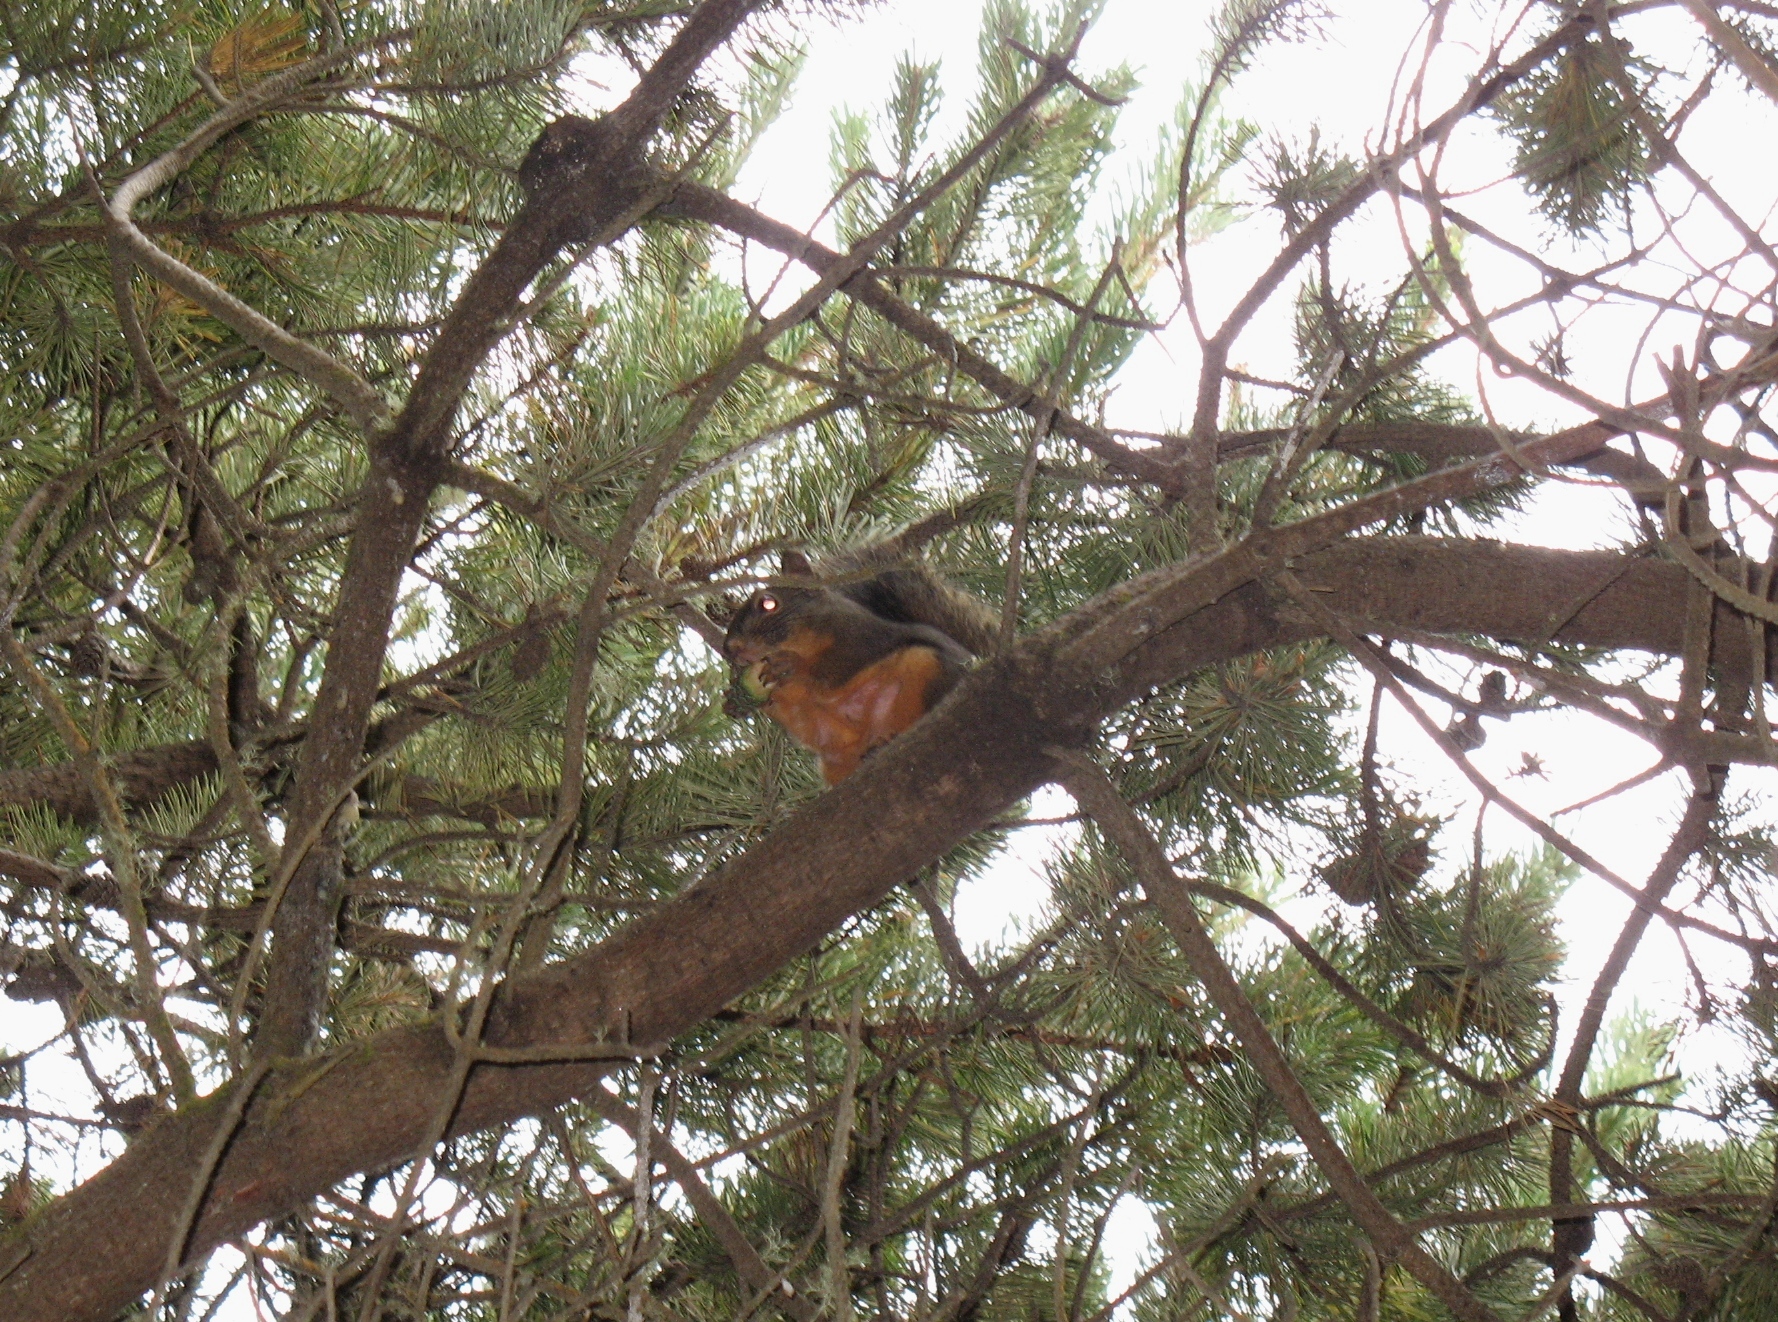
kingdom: Animalia
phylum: Chordata
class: Mammalia
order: Rodentia
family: Sciuridae
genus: Tamiasciurus
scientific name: Tamiasciurus douglasii
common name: Douglas's squirrel
